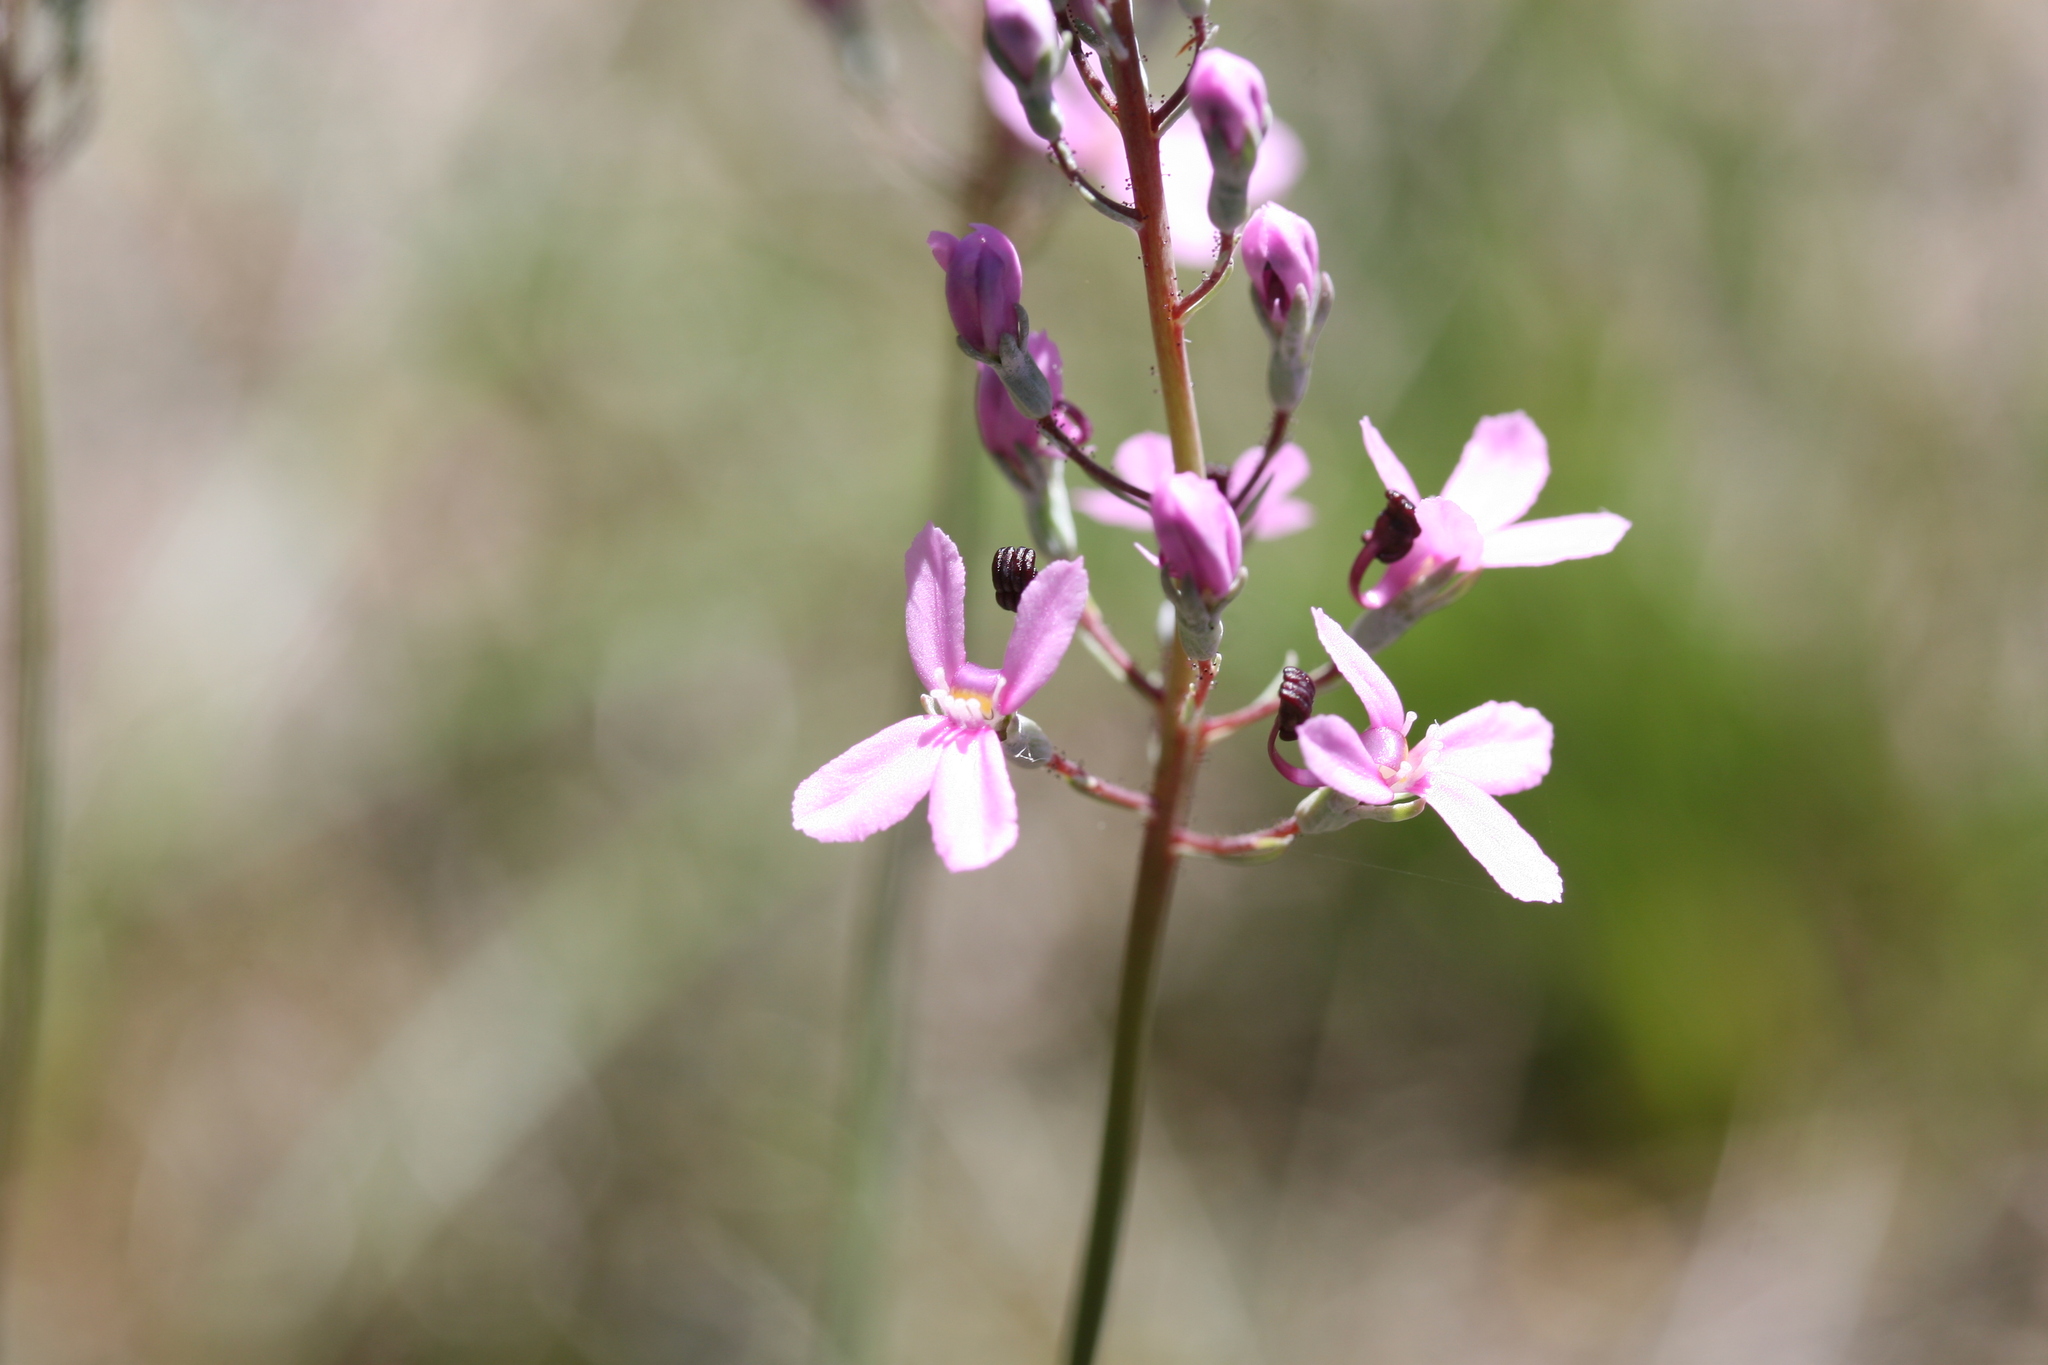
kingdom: Plantae
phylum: Tracheophyta
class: Magnoliopsida
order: Asterales
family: Stylidiaceae
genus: Stylidium
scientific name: Stylidium tenue
